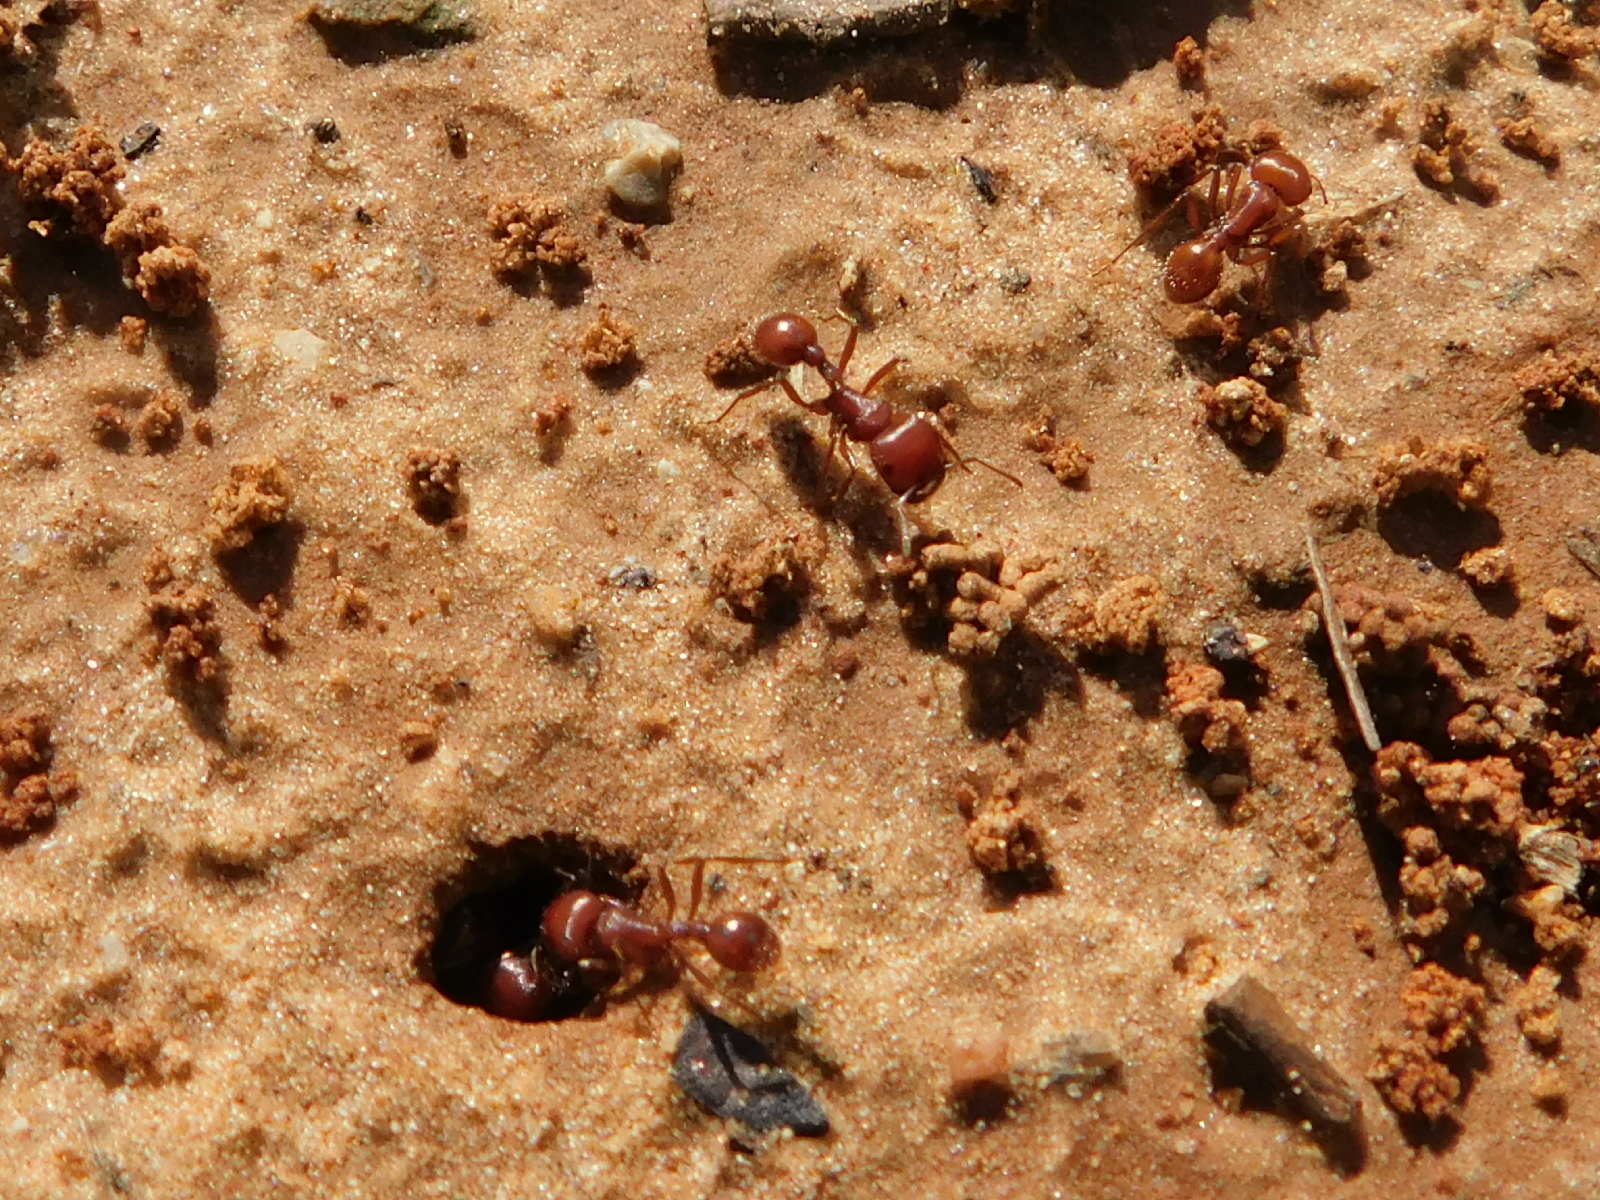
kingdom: Animalia
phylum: Arthropoda
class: Insecta
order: Hymenoptera
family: Formicidae
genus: Pogonomyrmex
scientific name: Pogonomyrmex barbatus
